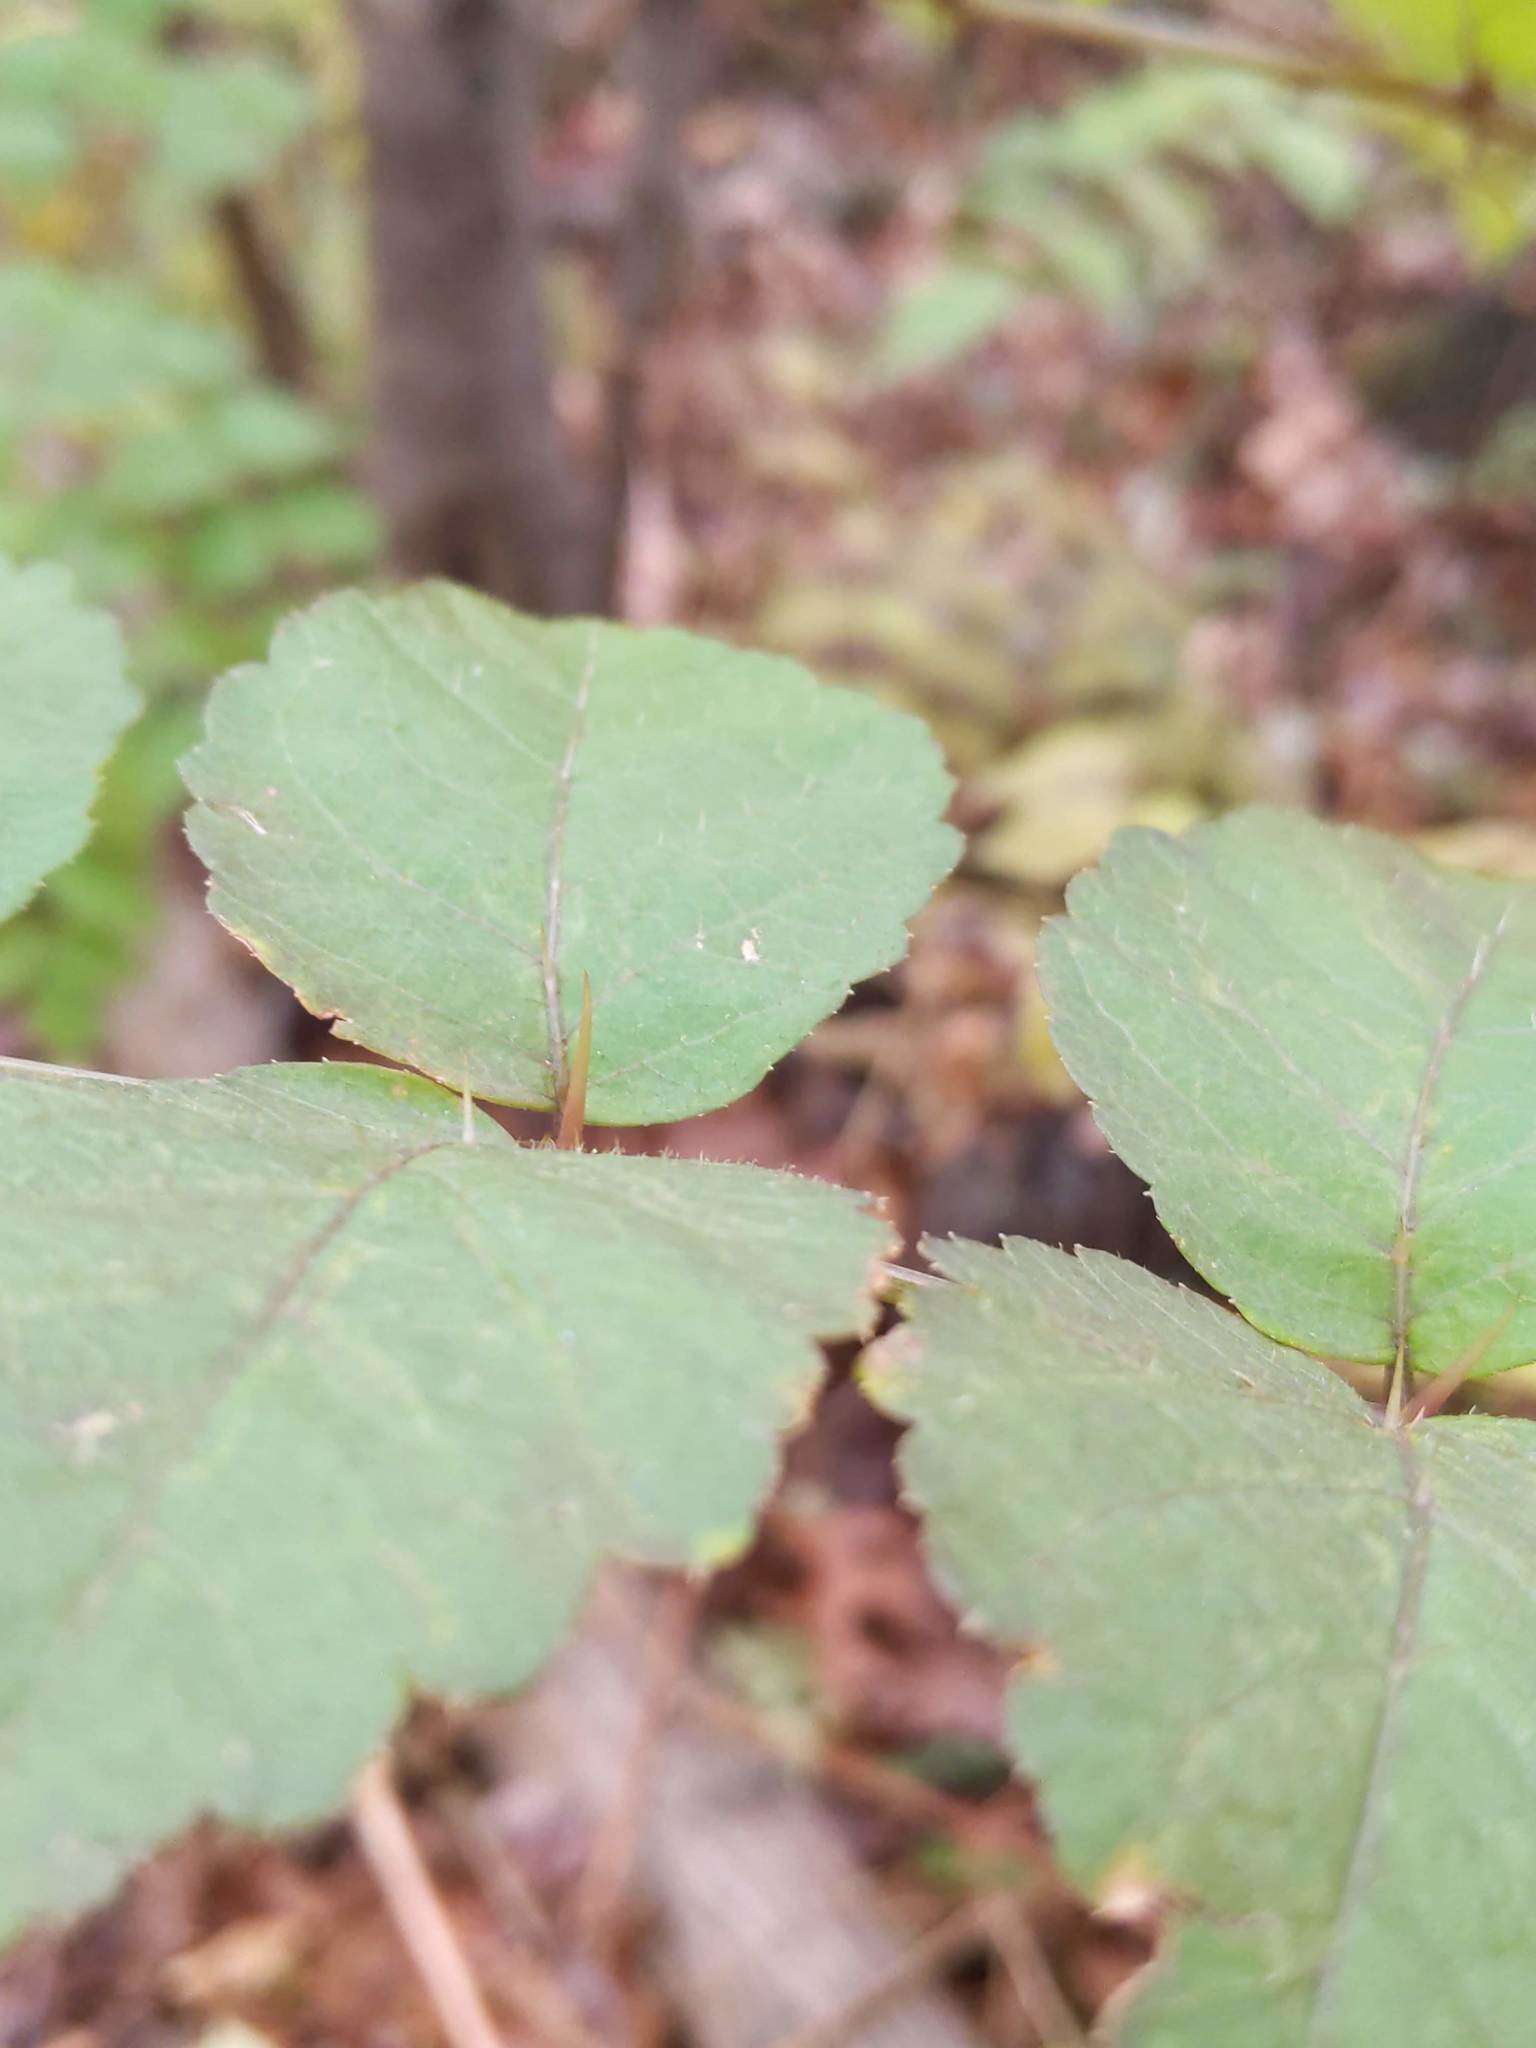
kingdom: Plantae
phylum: Tracheophyta
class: Magnoliopsida
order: Apiales
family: Araliaceae
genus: Aralia
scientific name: Aralia elata
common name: Japanese angelica-tree
